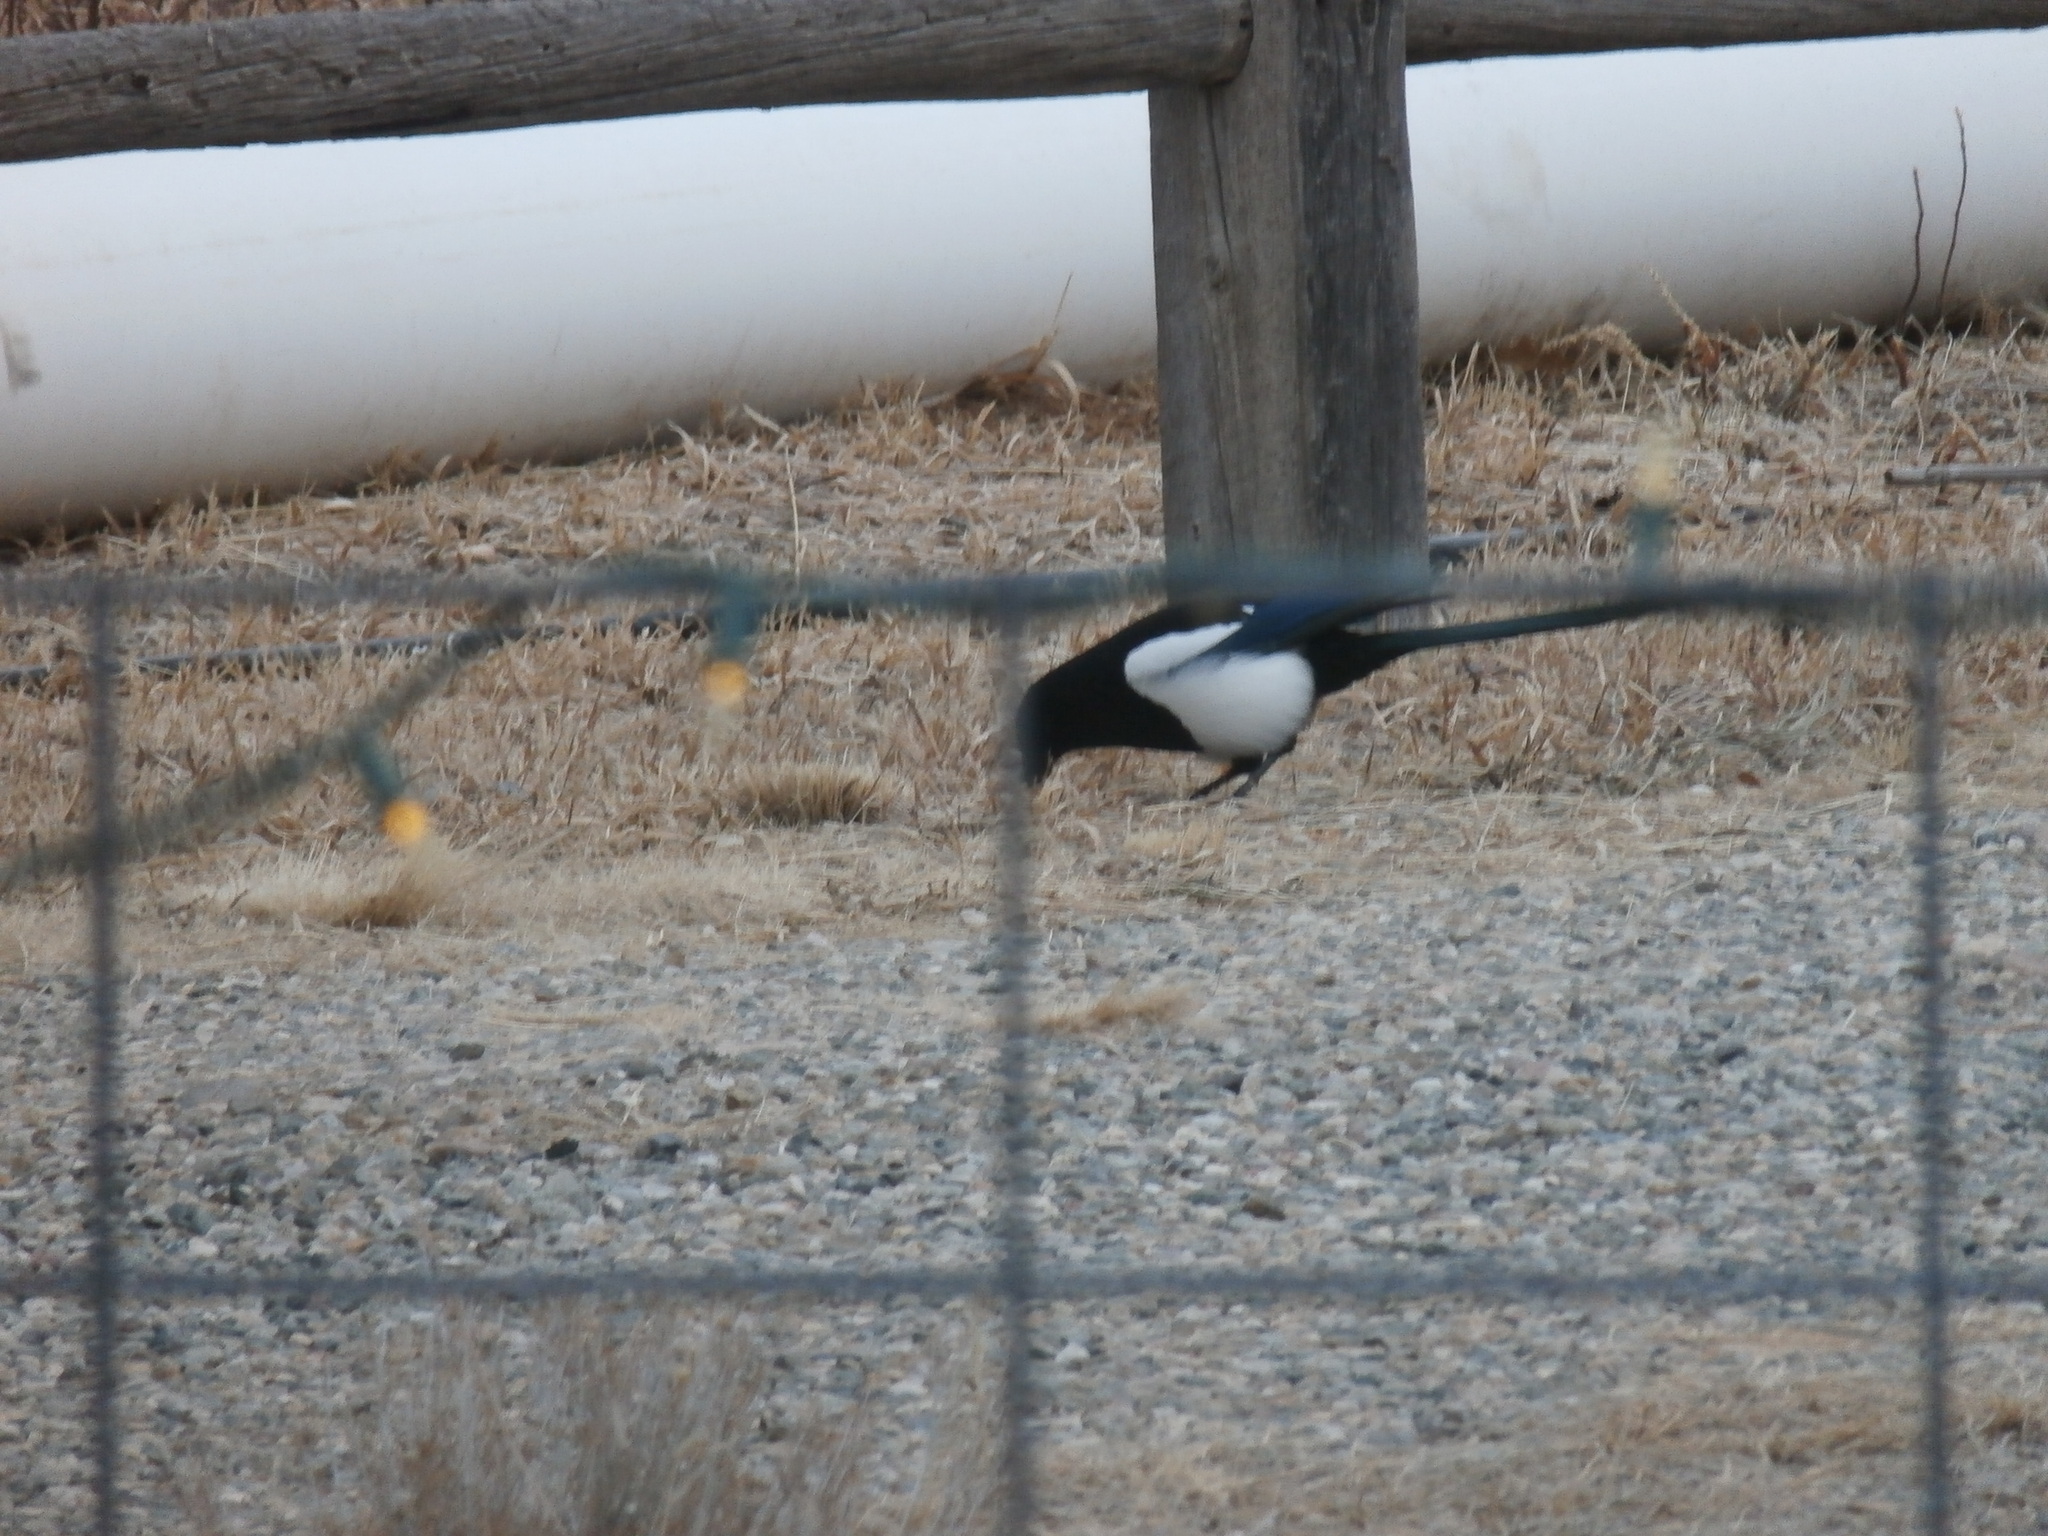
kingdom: Animalia
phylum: Chordata
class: Aves
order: Passeriformes
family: Corvidae
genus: Pica
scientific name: Pica hudsonia
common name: Black-billed magpie
